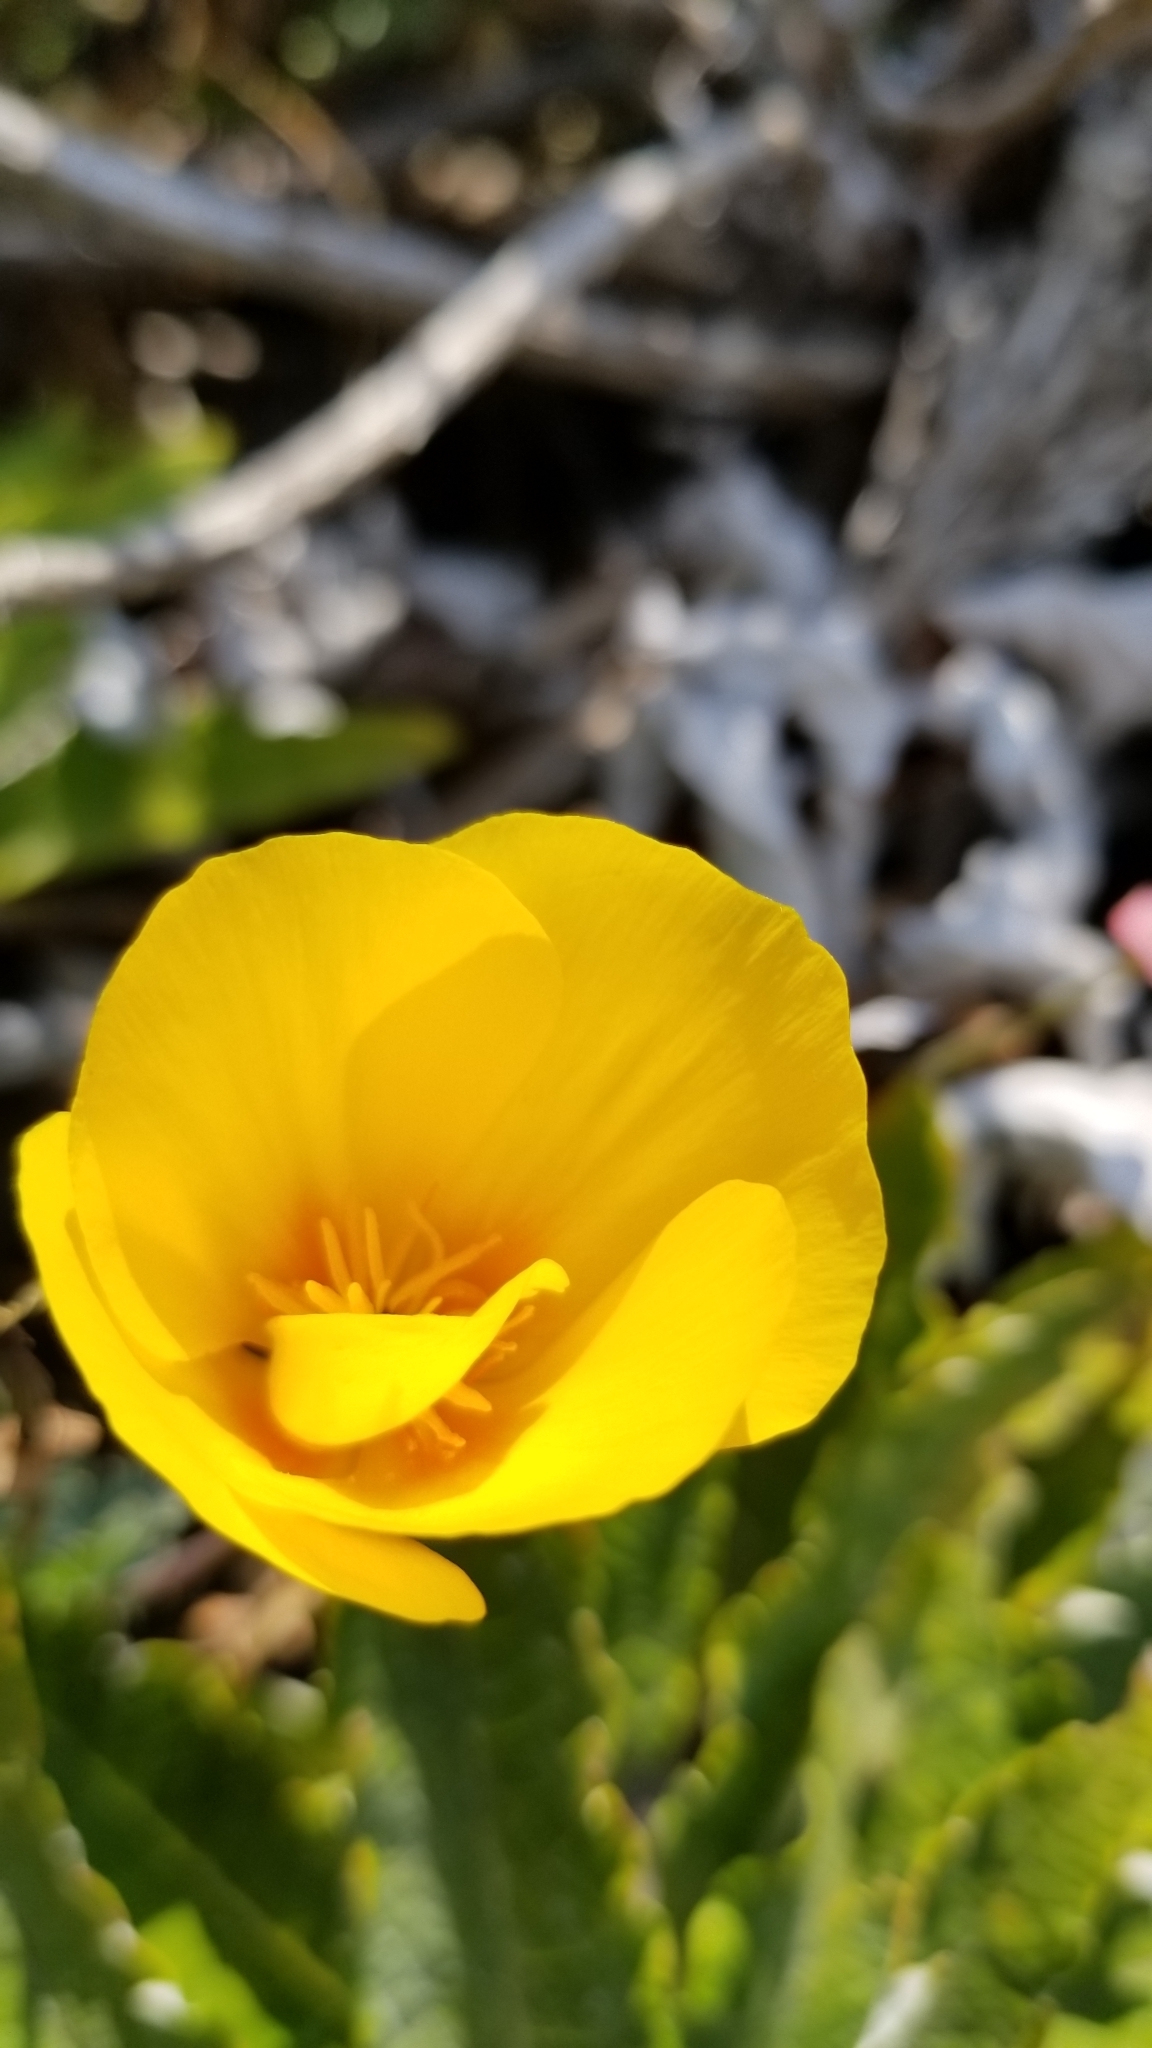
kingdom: Plantae
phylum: Tracheophyta
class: Magnoliopsida
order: Ranunculales
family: Papaveraceae
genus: Eschscholzia
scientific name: Eschscholzia californica
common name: California poppy
